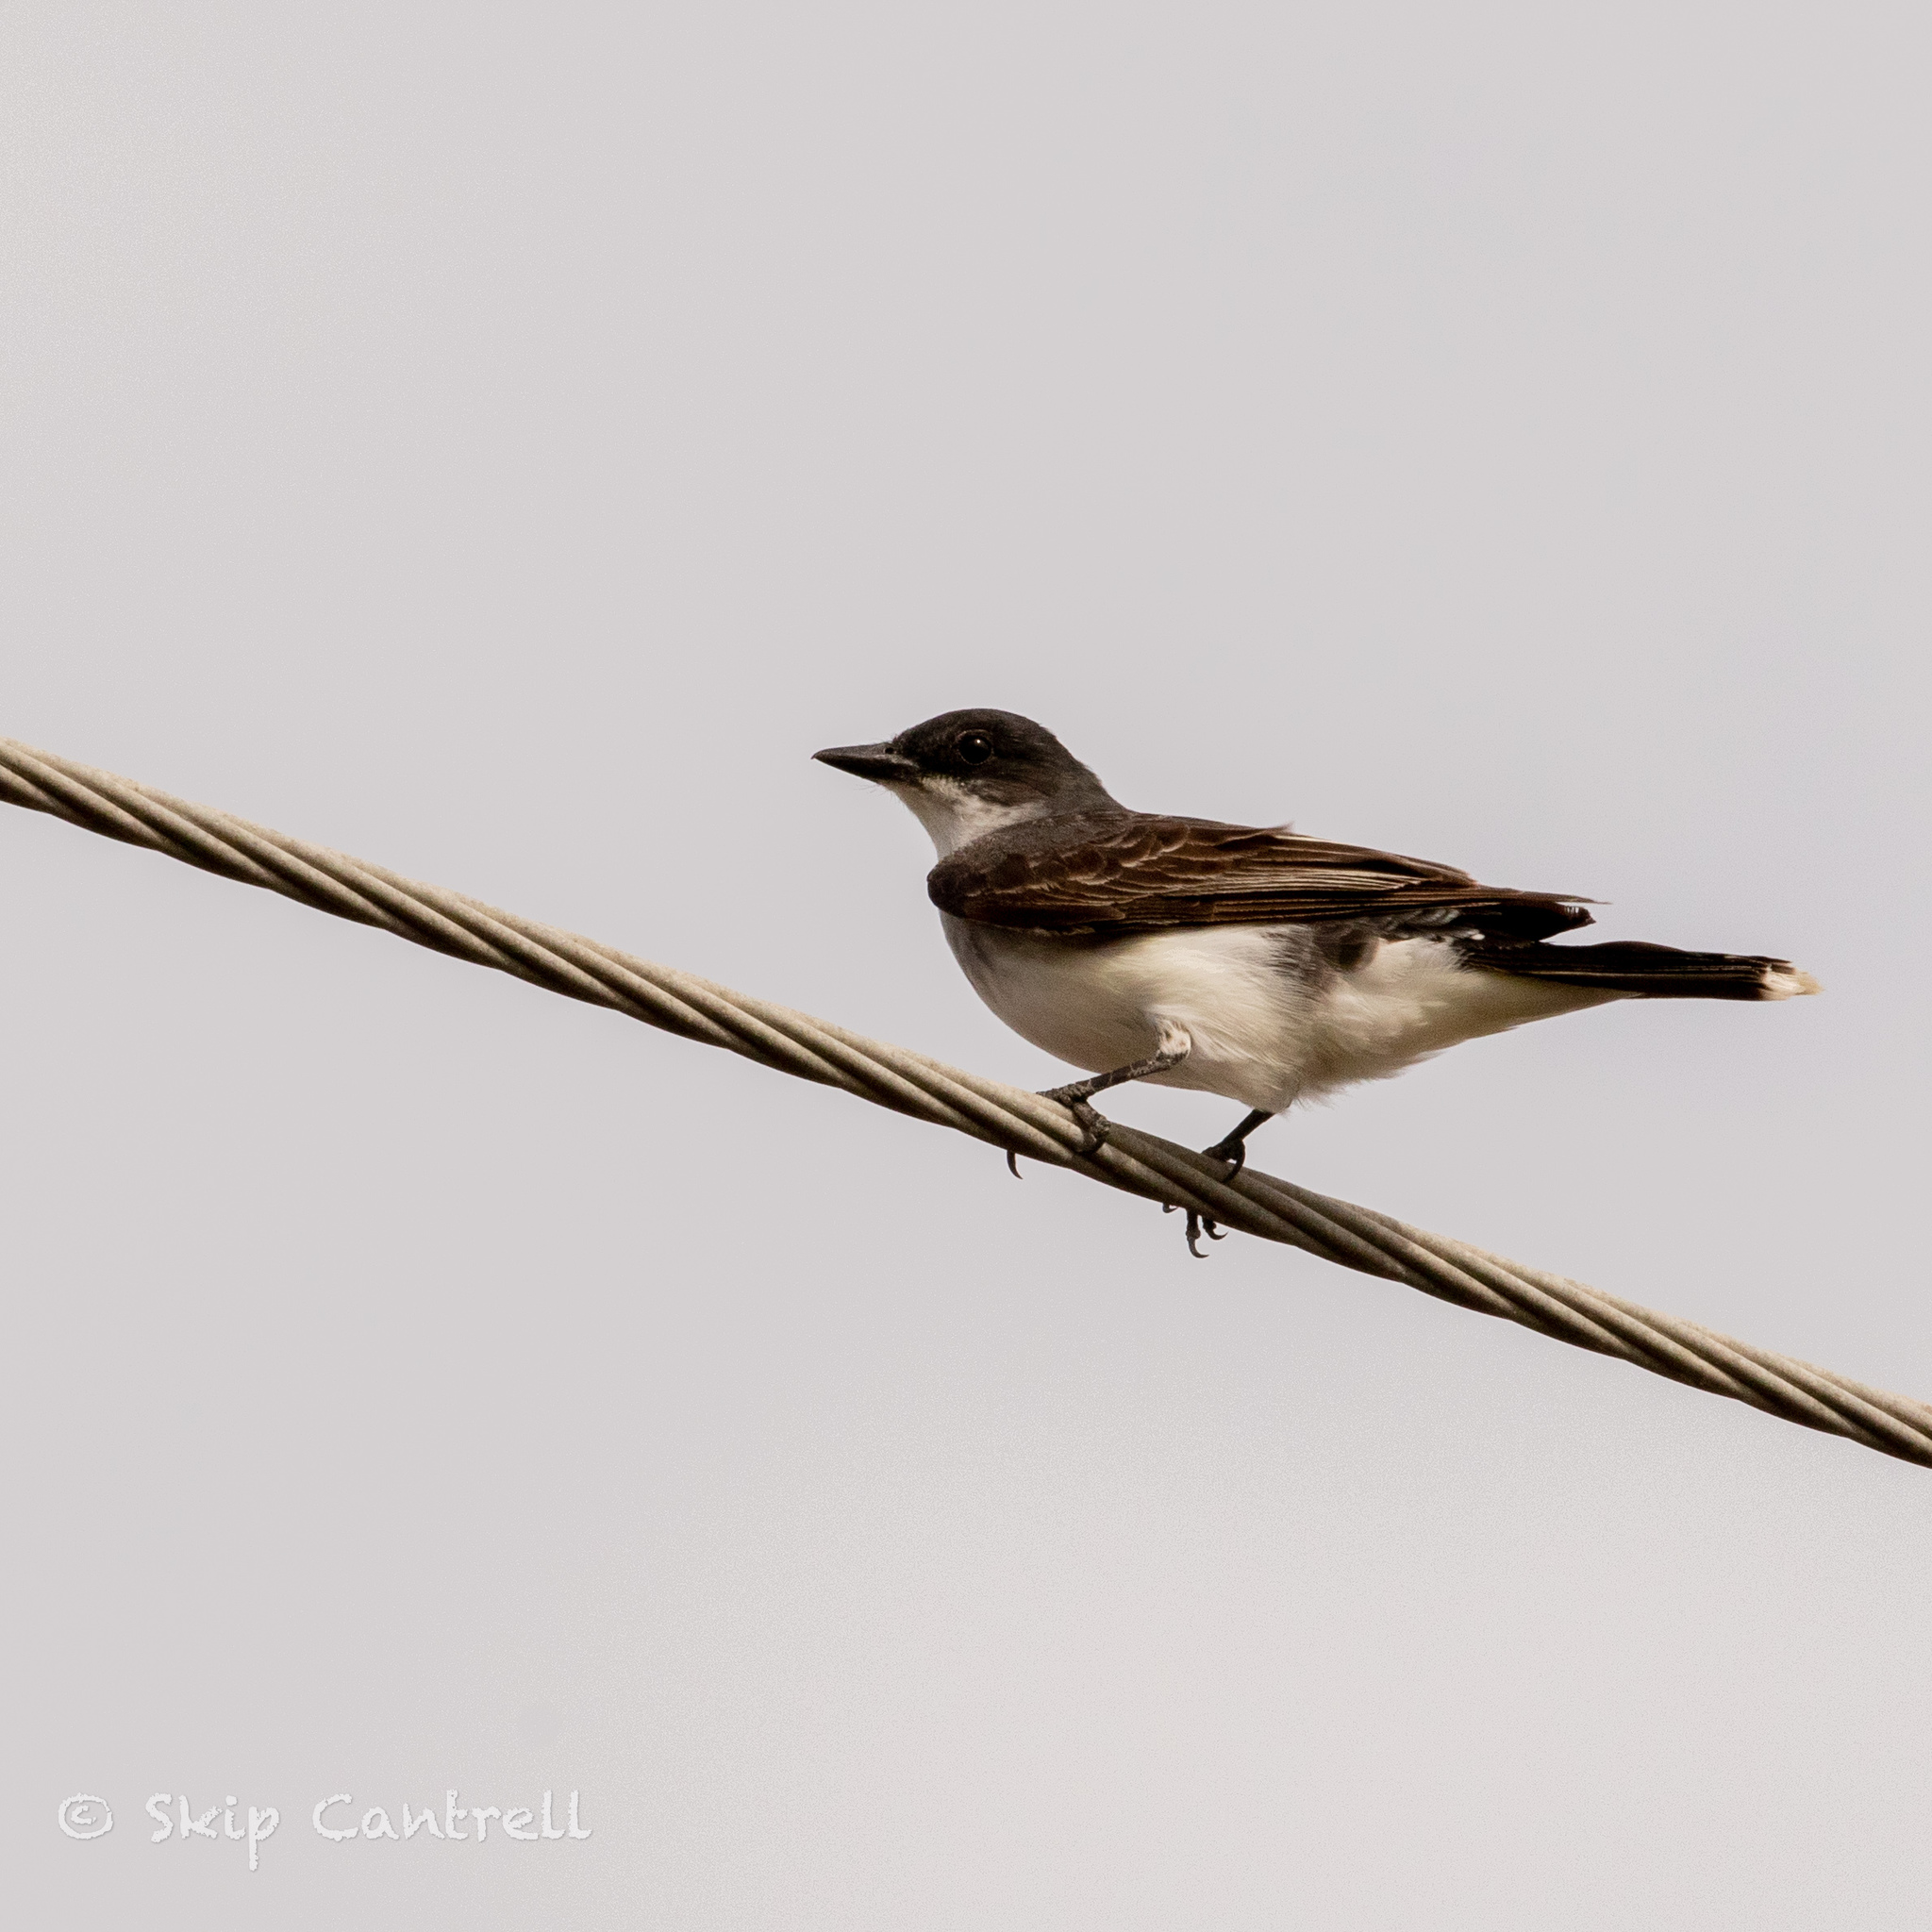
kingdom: Animalia
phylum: Chordata
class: Aves
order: Passeriformes
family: Tyrannidae
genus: Tyrannus
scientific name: Tyrannus tyrannus
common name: Eastern kingbird
